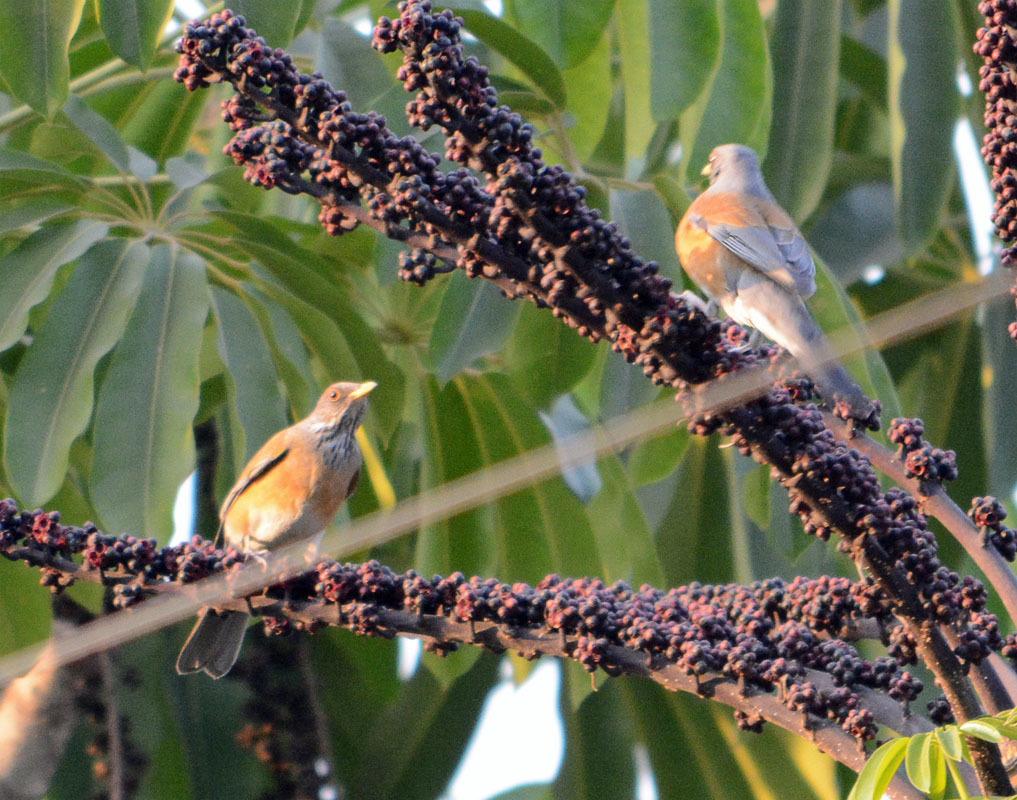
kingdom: Animalia
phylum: Chordata
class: Aves
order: Passeriformes
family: Turdidae
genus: Turdus
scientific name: Turdus rufopalliatus
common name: Rufous-backed robin
